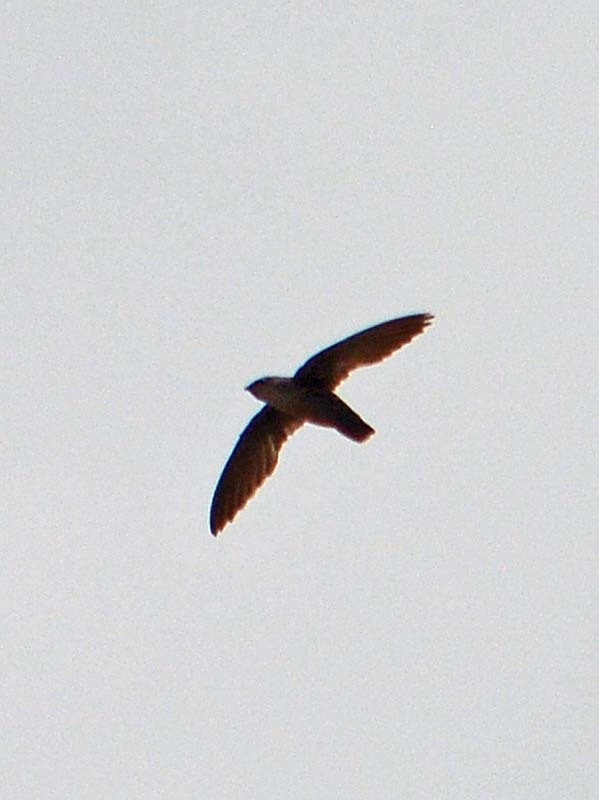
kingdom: Animalia
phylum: Chordata
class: Aves
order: Apodiformes
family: Apodidae
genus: Chaetura
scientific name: Chaetura pelagica
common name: Chimney swift
